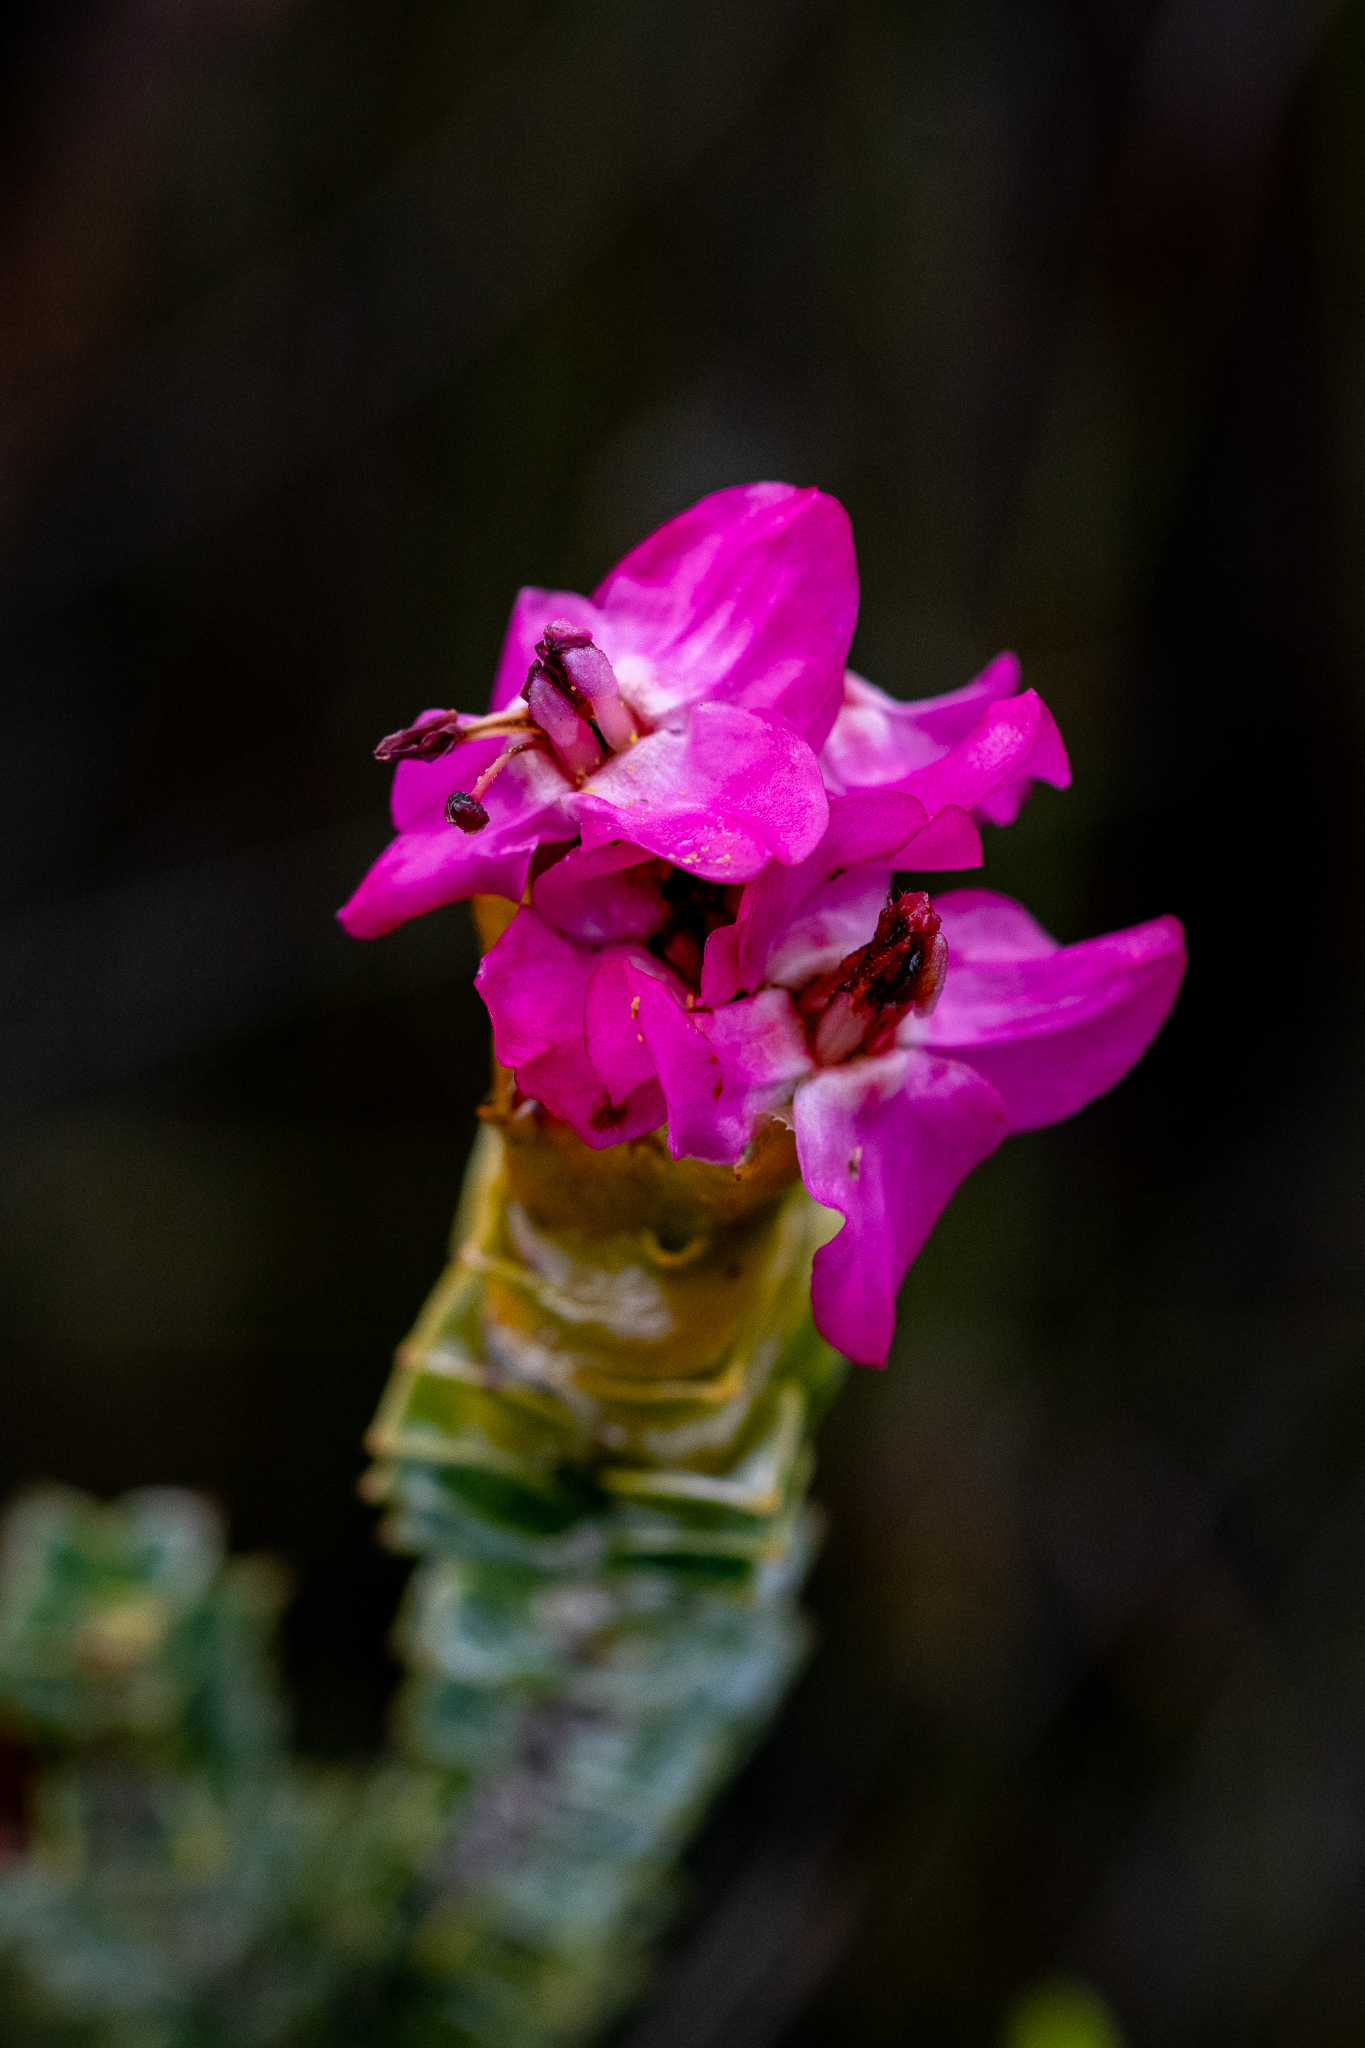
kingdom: Plantae
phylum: Tracheophyta
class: Magnoliopsida
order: Myrtales
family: Penaeaceae
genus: Saltera
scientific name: Saltera sarcocolla
